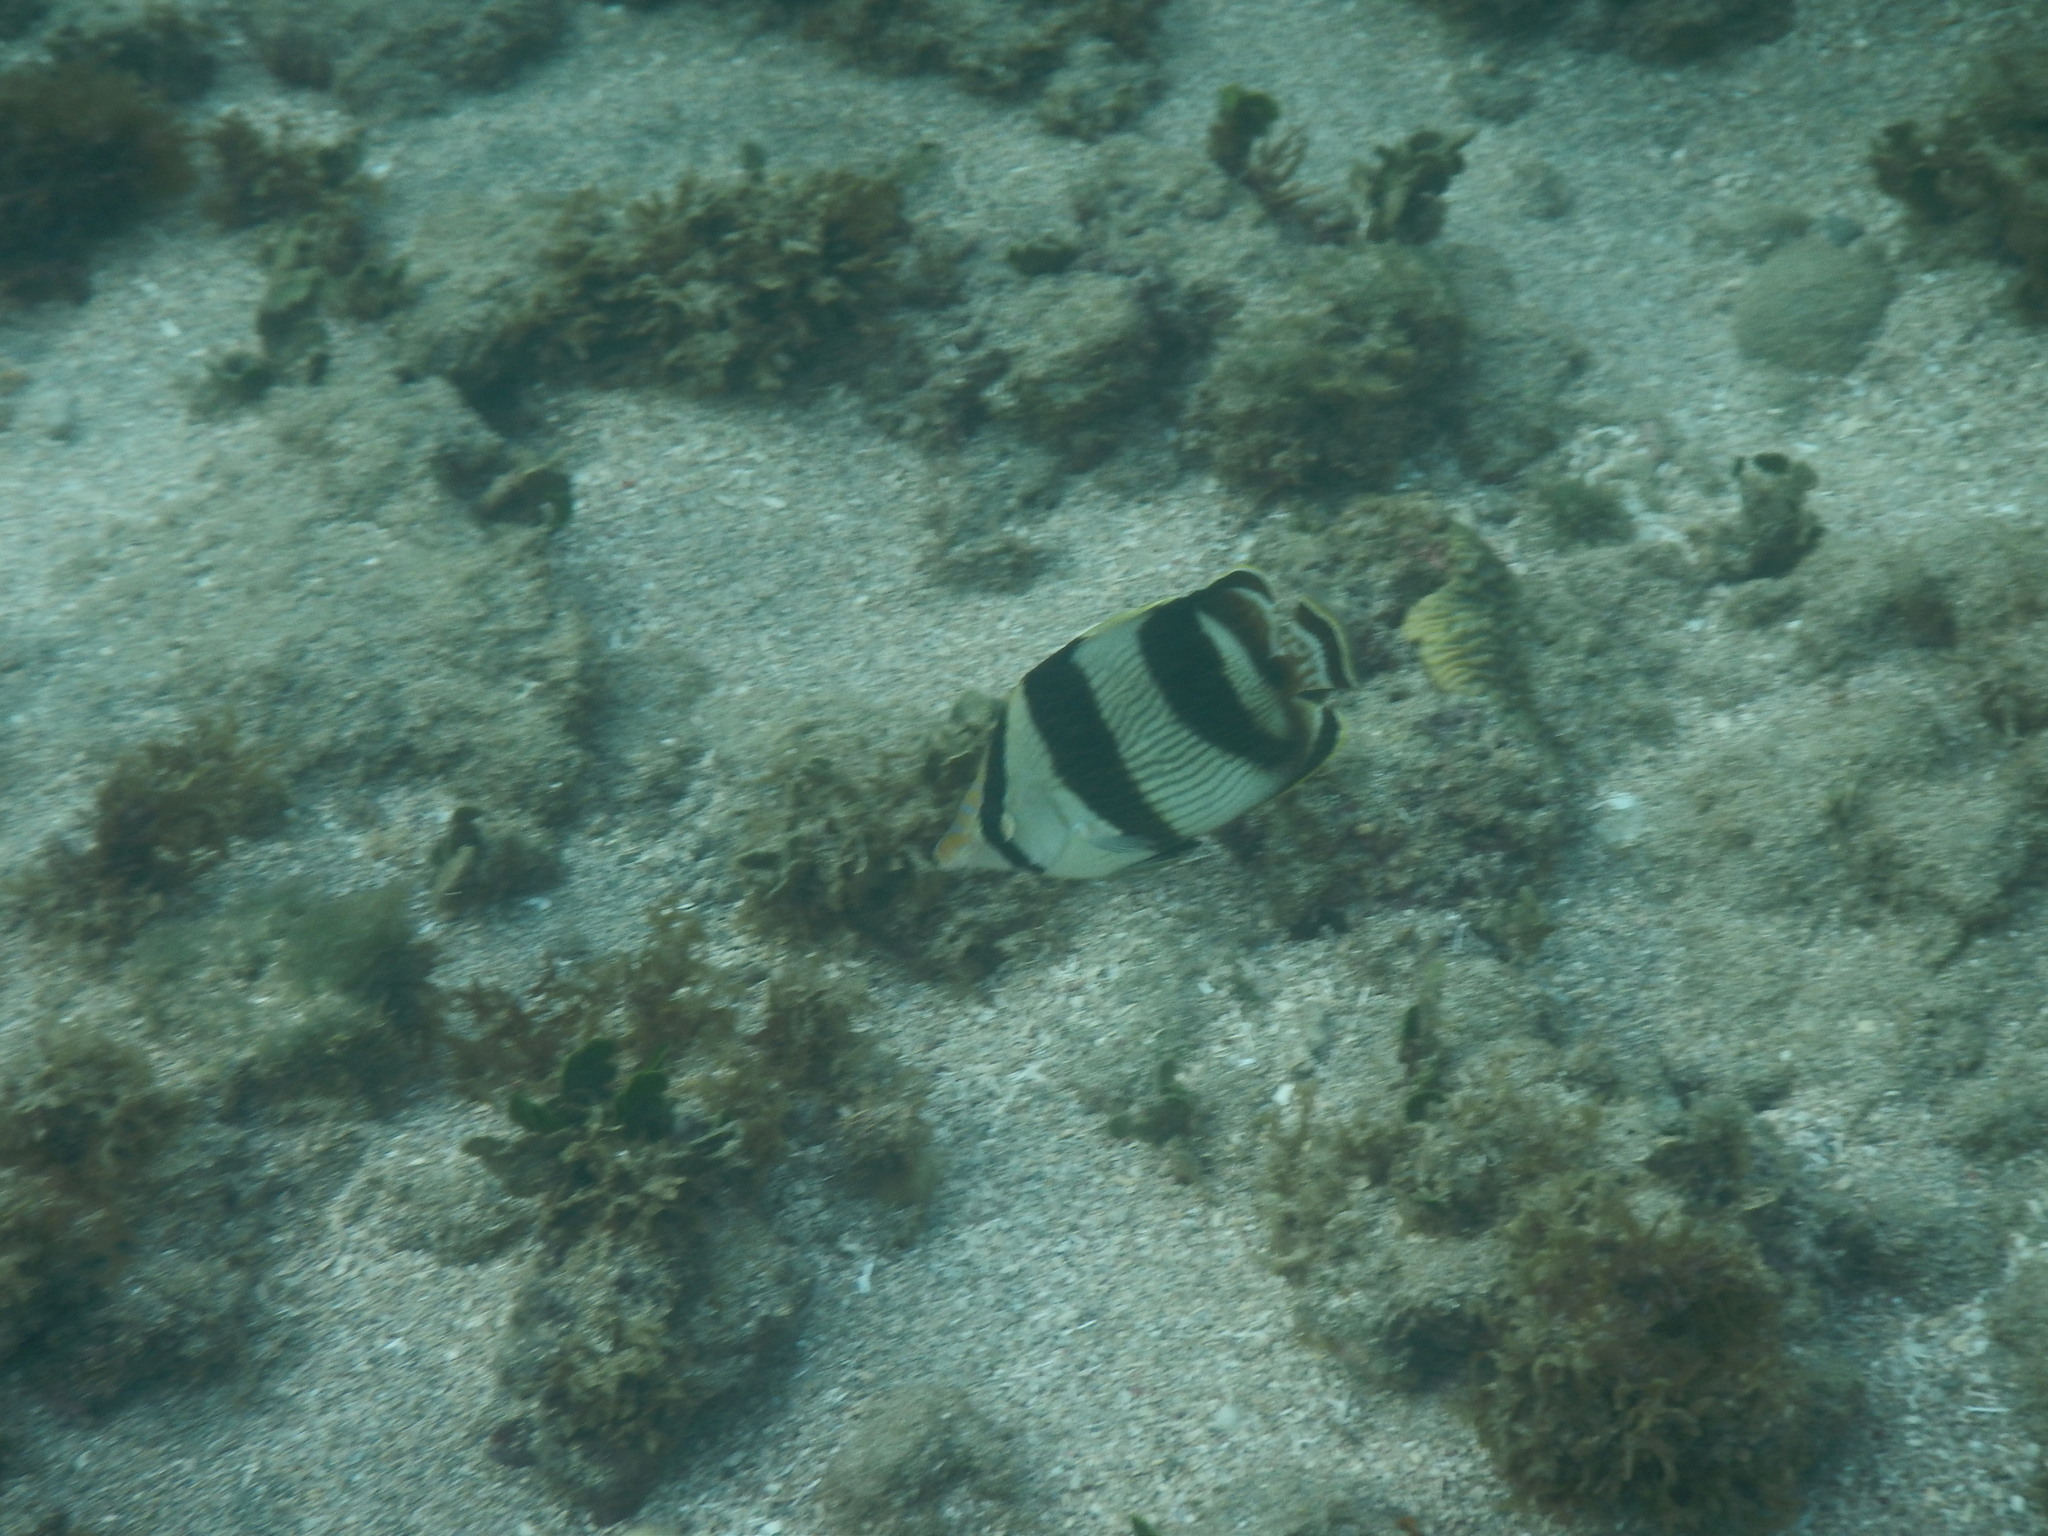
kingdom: Animalia
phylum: Chordata
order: Perciformes
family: Chaetodontidae
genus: Chaetodon
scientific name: Chaetodon striatus
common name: Banded butterflyfish
